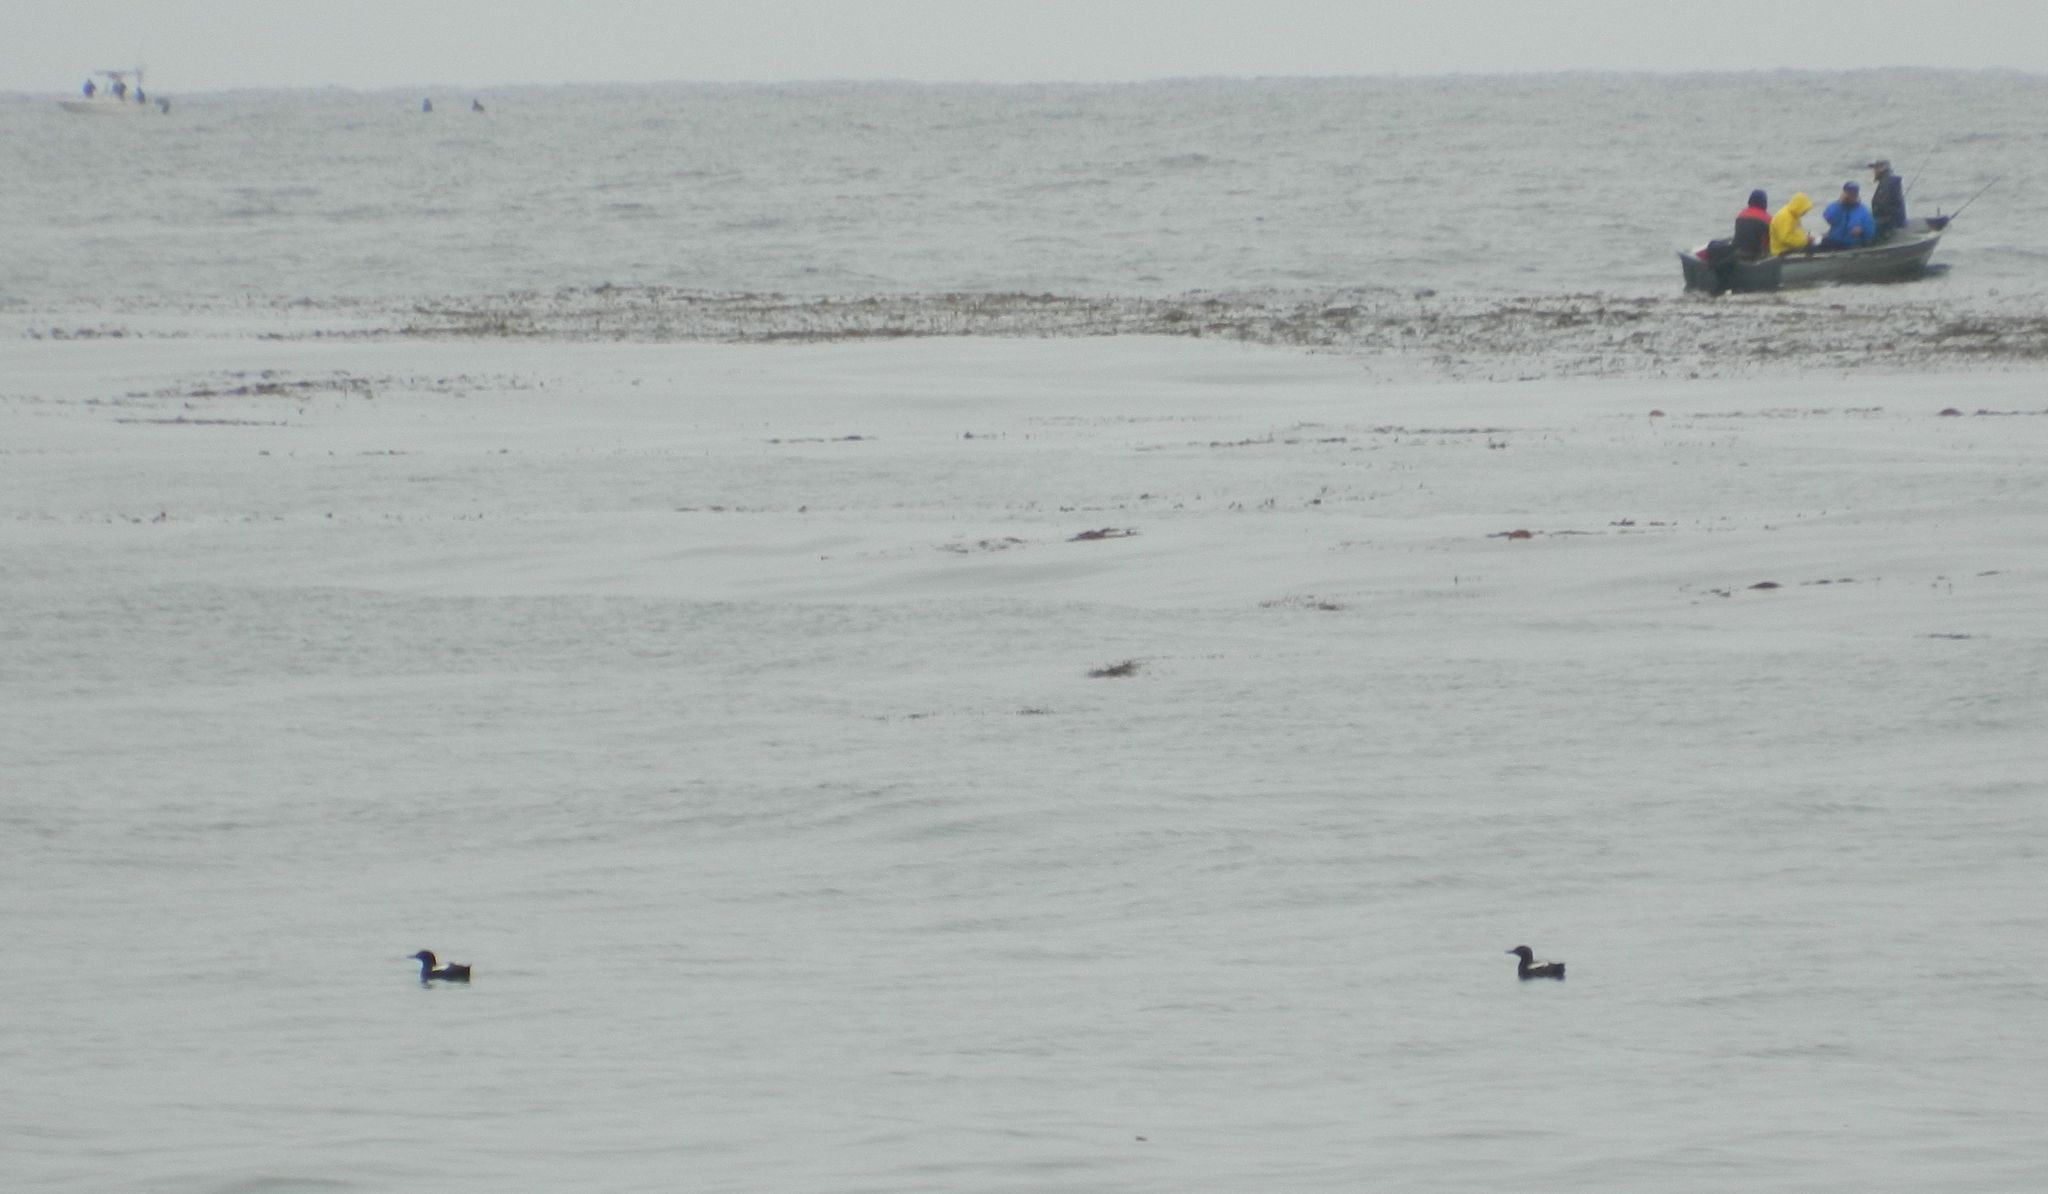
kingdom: Animalia
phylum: Chordata
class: Aves
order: Charadriiformes
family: Alcidae
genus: Cepphus
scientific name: Cepphus columba
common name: Pigeon guillemot
